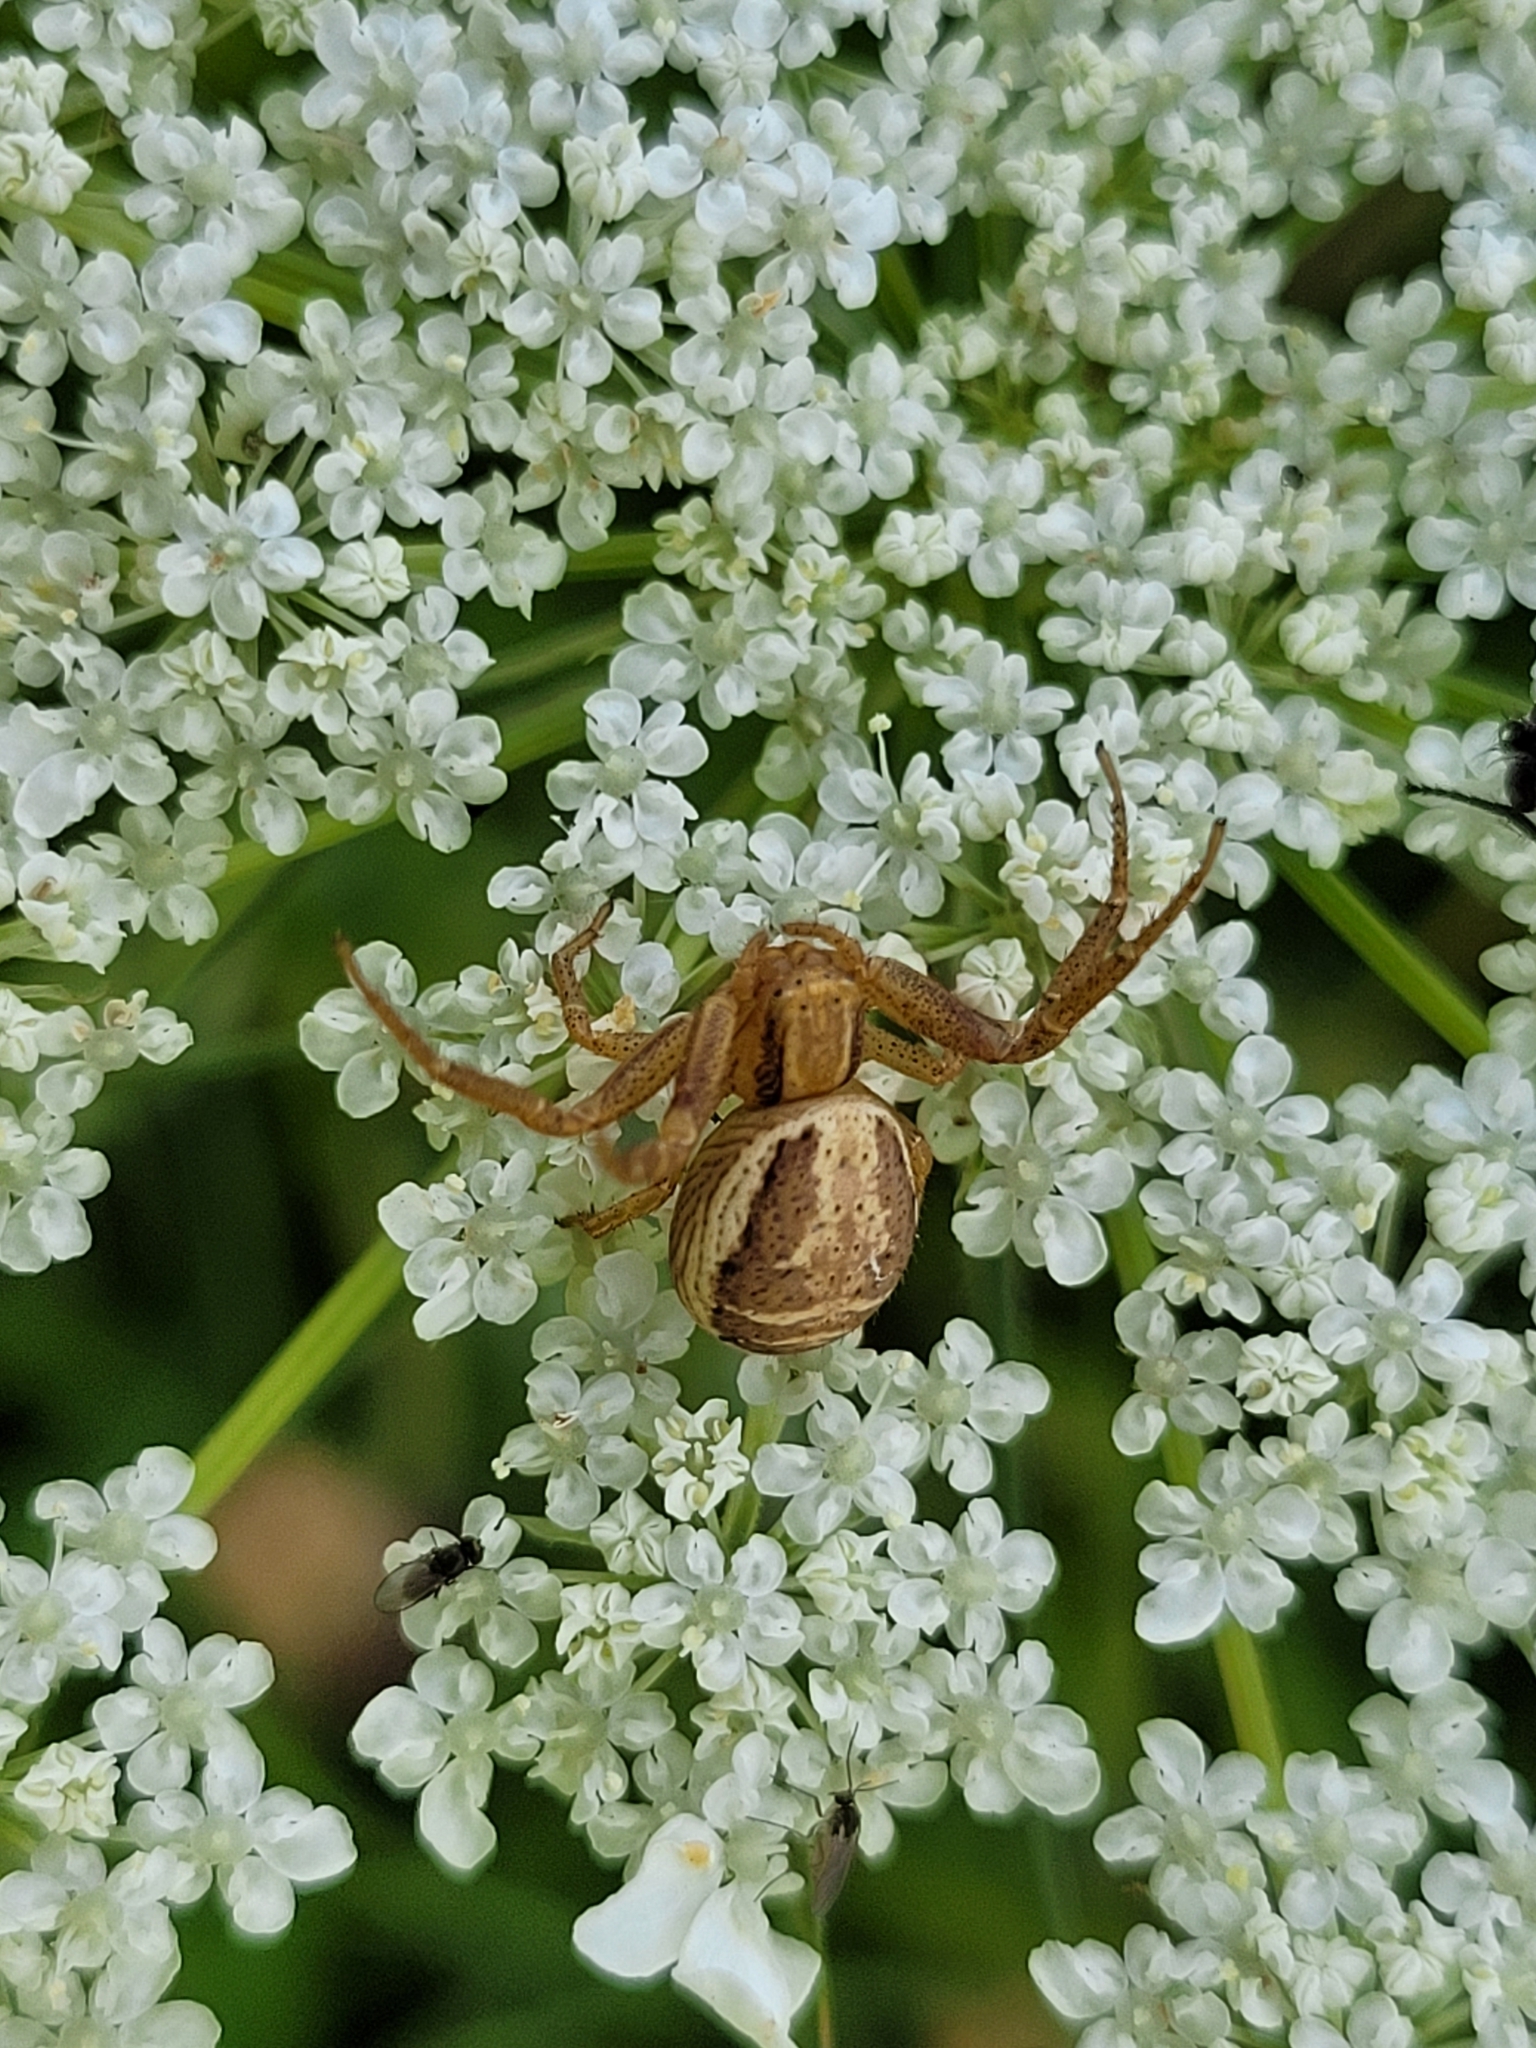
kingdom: Animalia
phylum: Arthropoda
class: Arachnida
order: Araneae
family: Thomisidae
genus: Xysticus
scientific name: Xysticus ulmi
